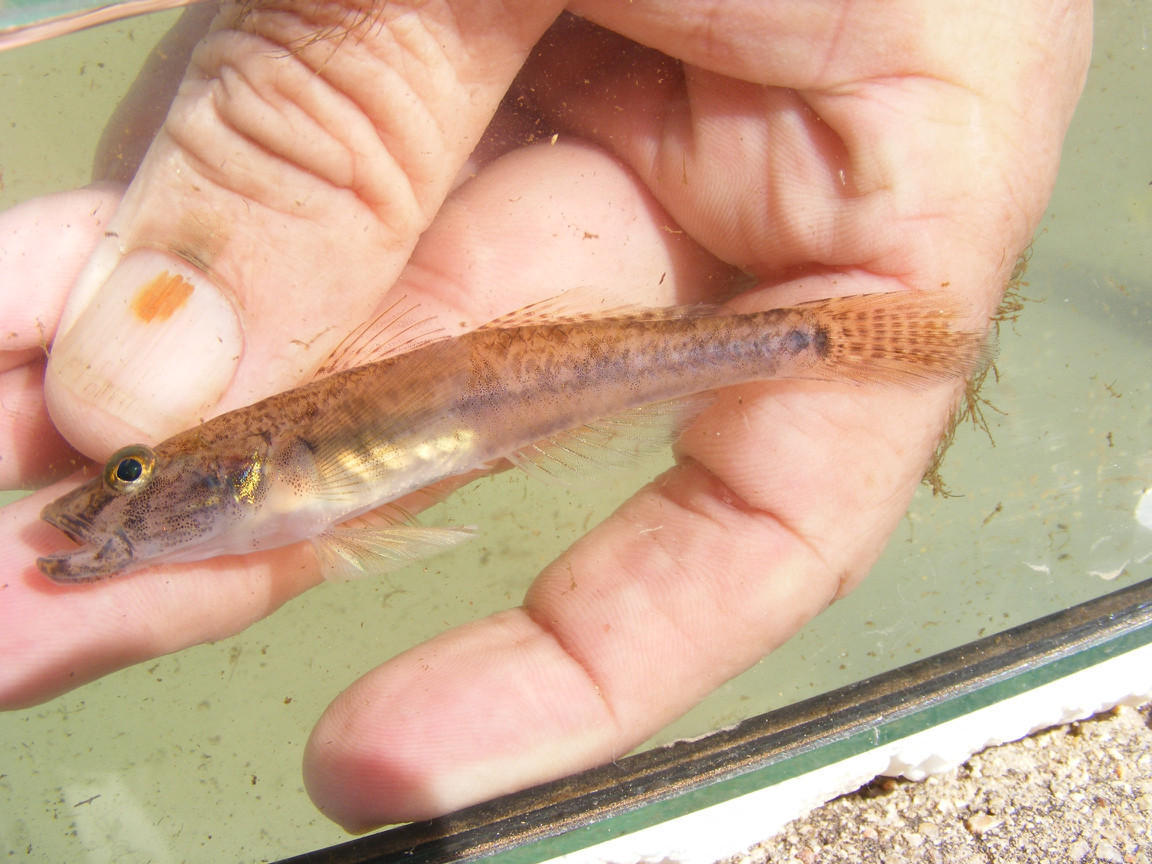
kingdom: Animalia
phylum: Chordata
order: Perciformes
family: Gobiidae
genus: Glossogobius
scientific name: Glossogobius callidus
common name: River goby
